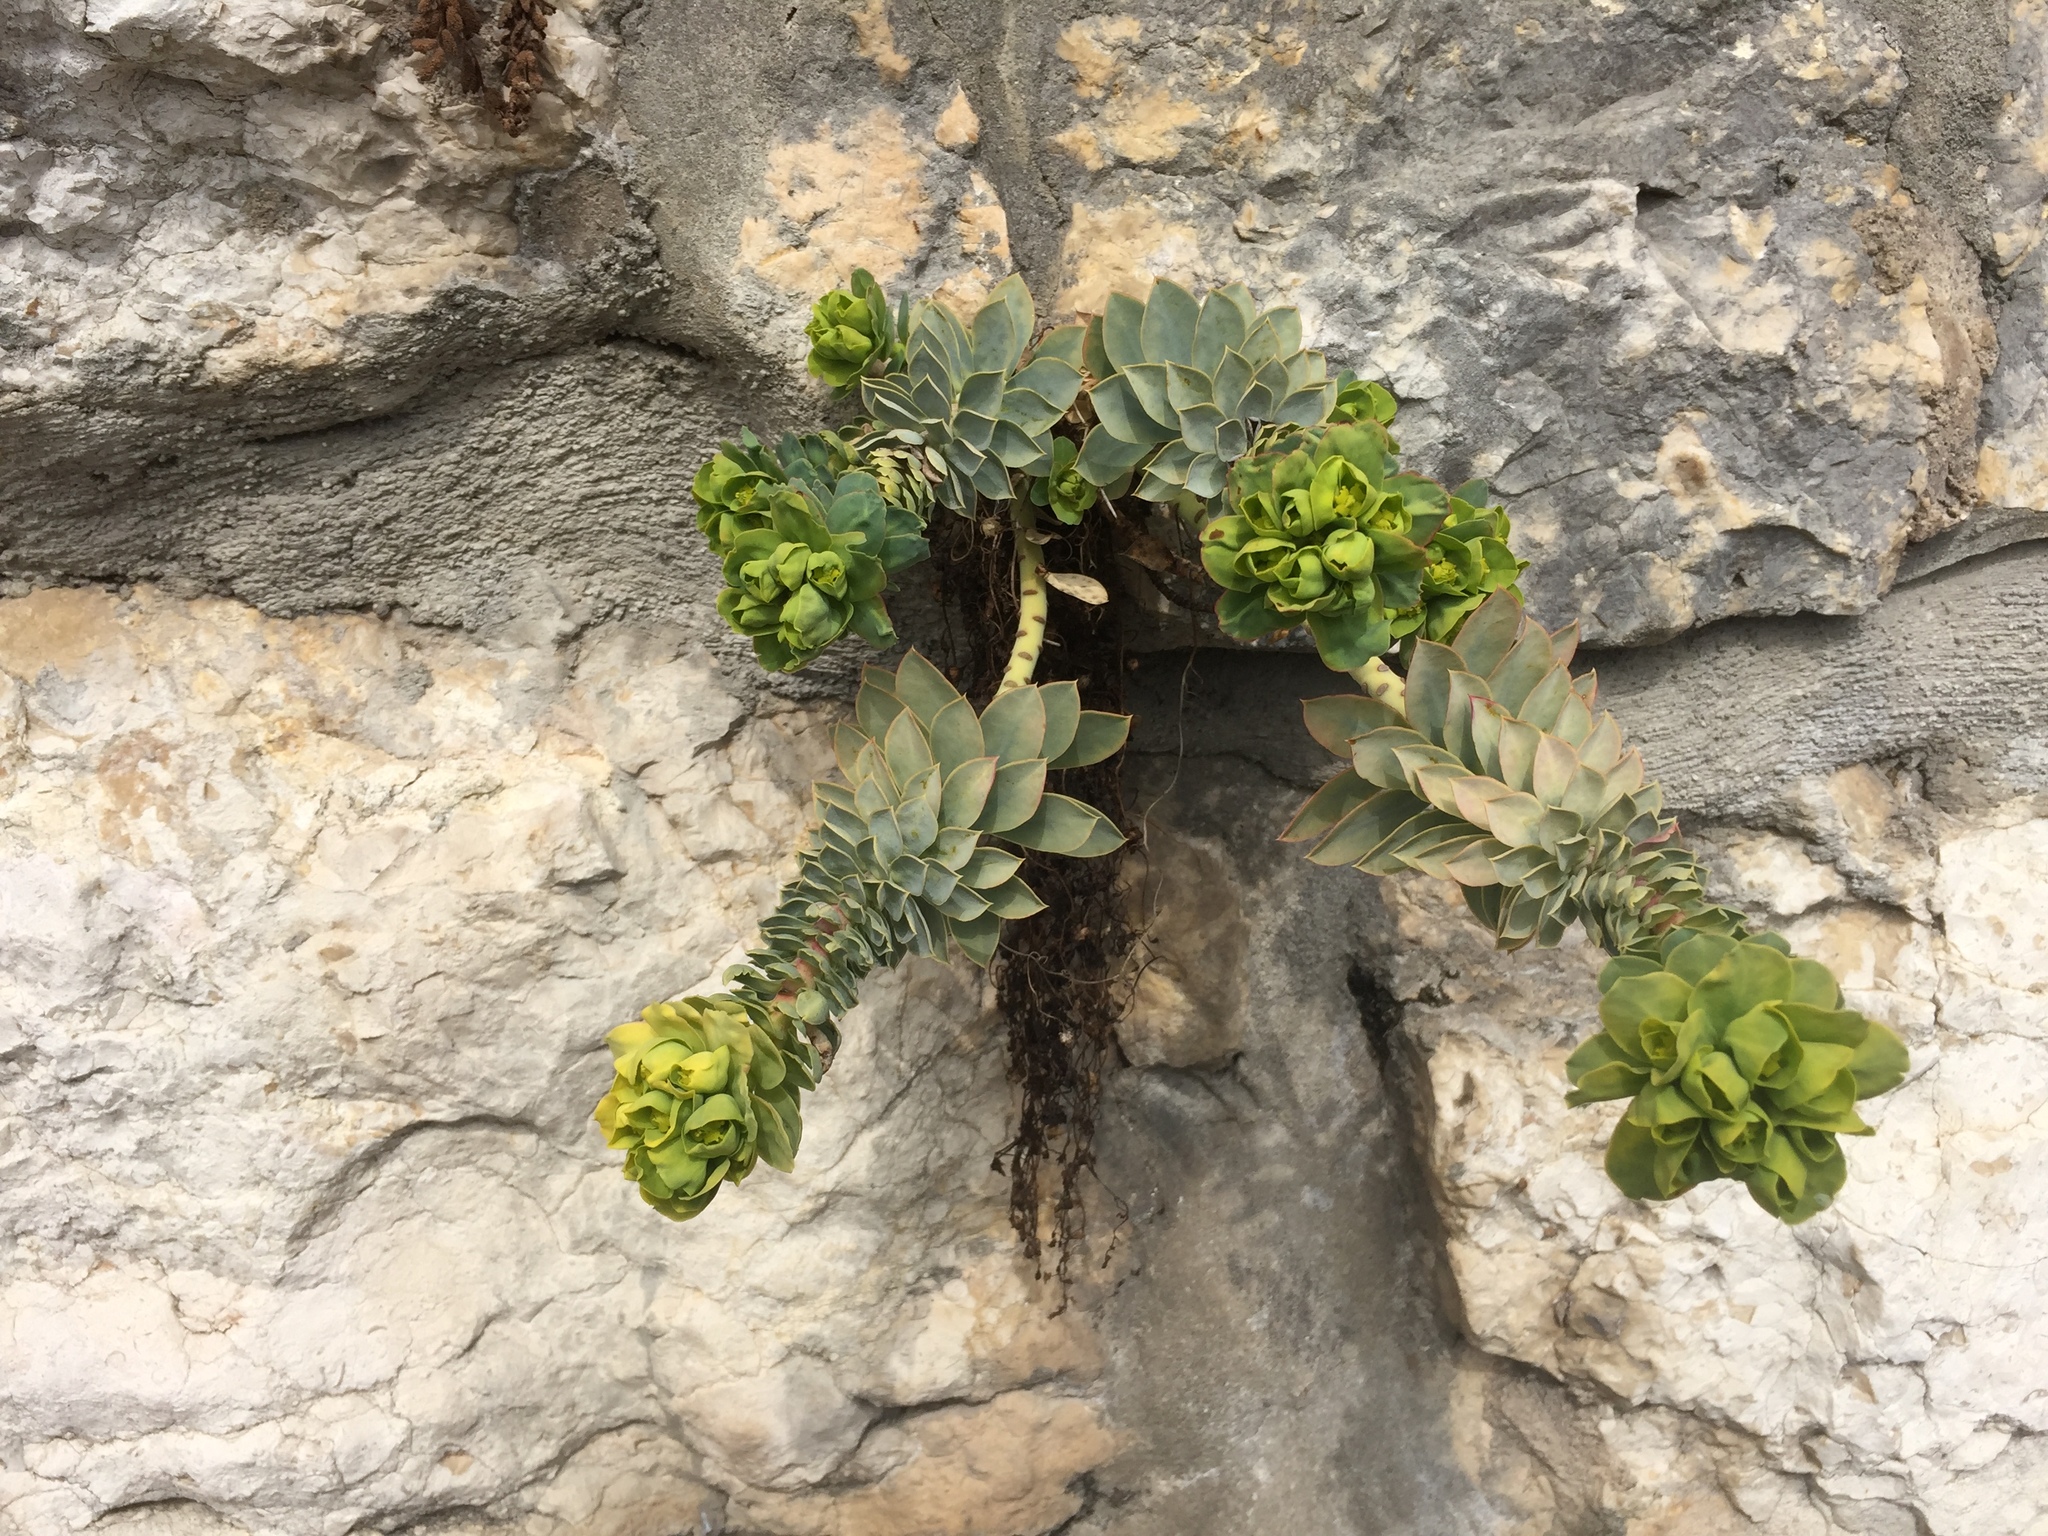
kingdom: Plantae
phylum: Tracheophyta
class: Magnoliopsida
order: Malpighiales
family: Euphorbiaceae
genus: Euphorbia
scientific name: Euphorbia myrsinites
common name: Myrtle spurge
